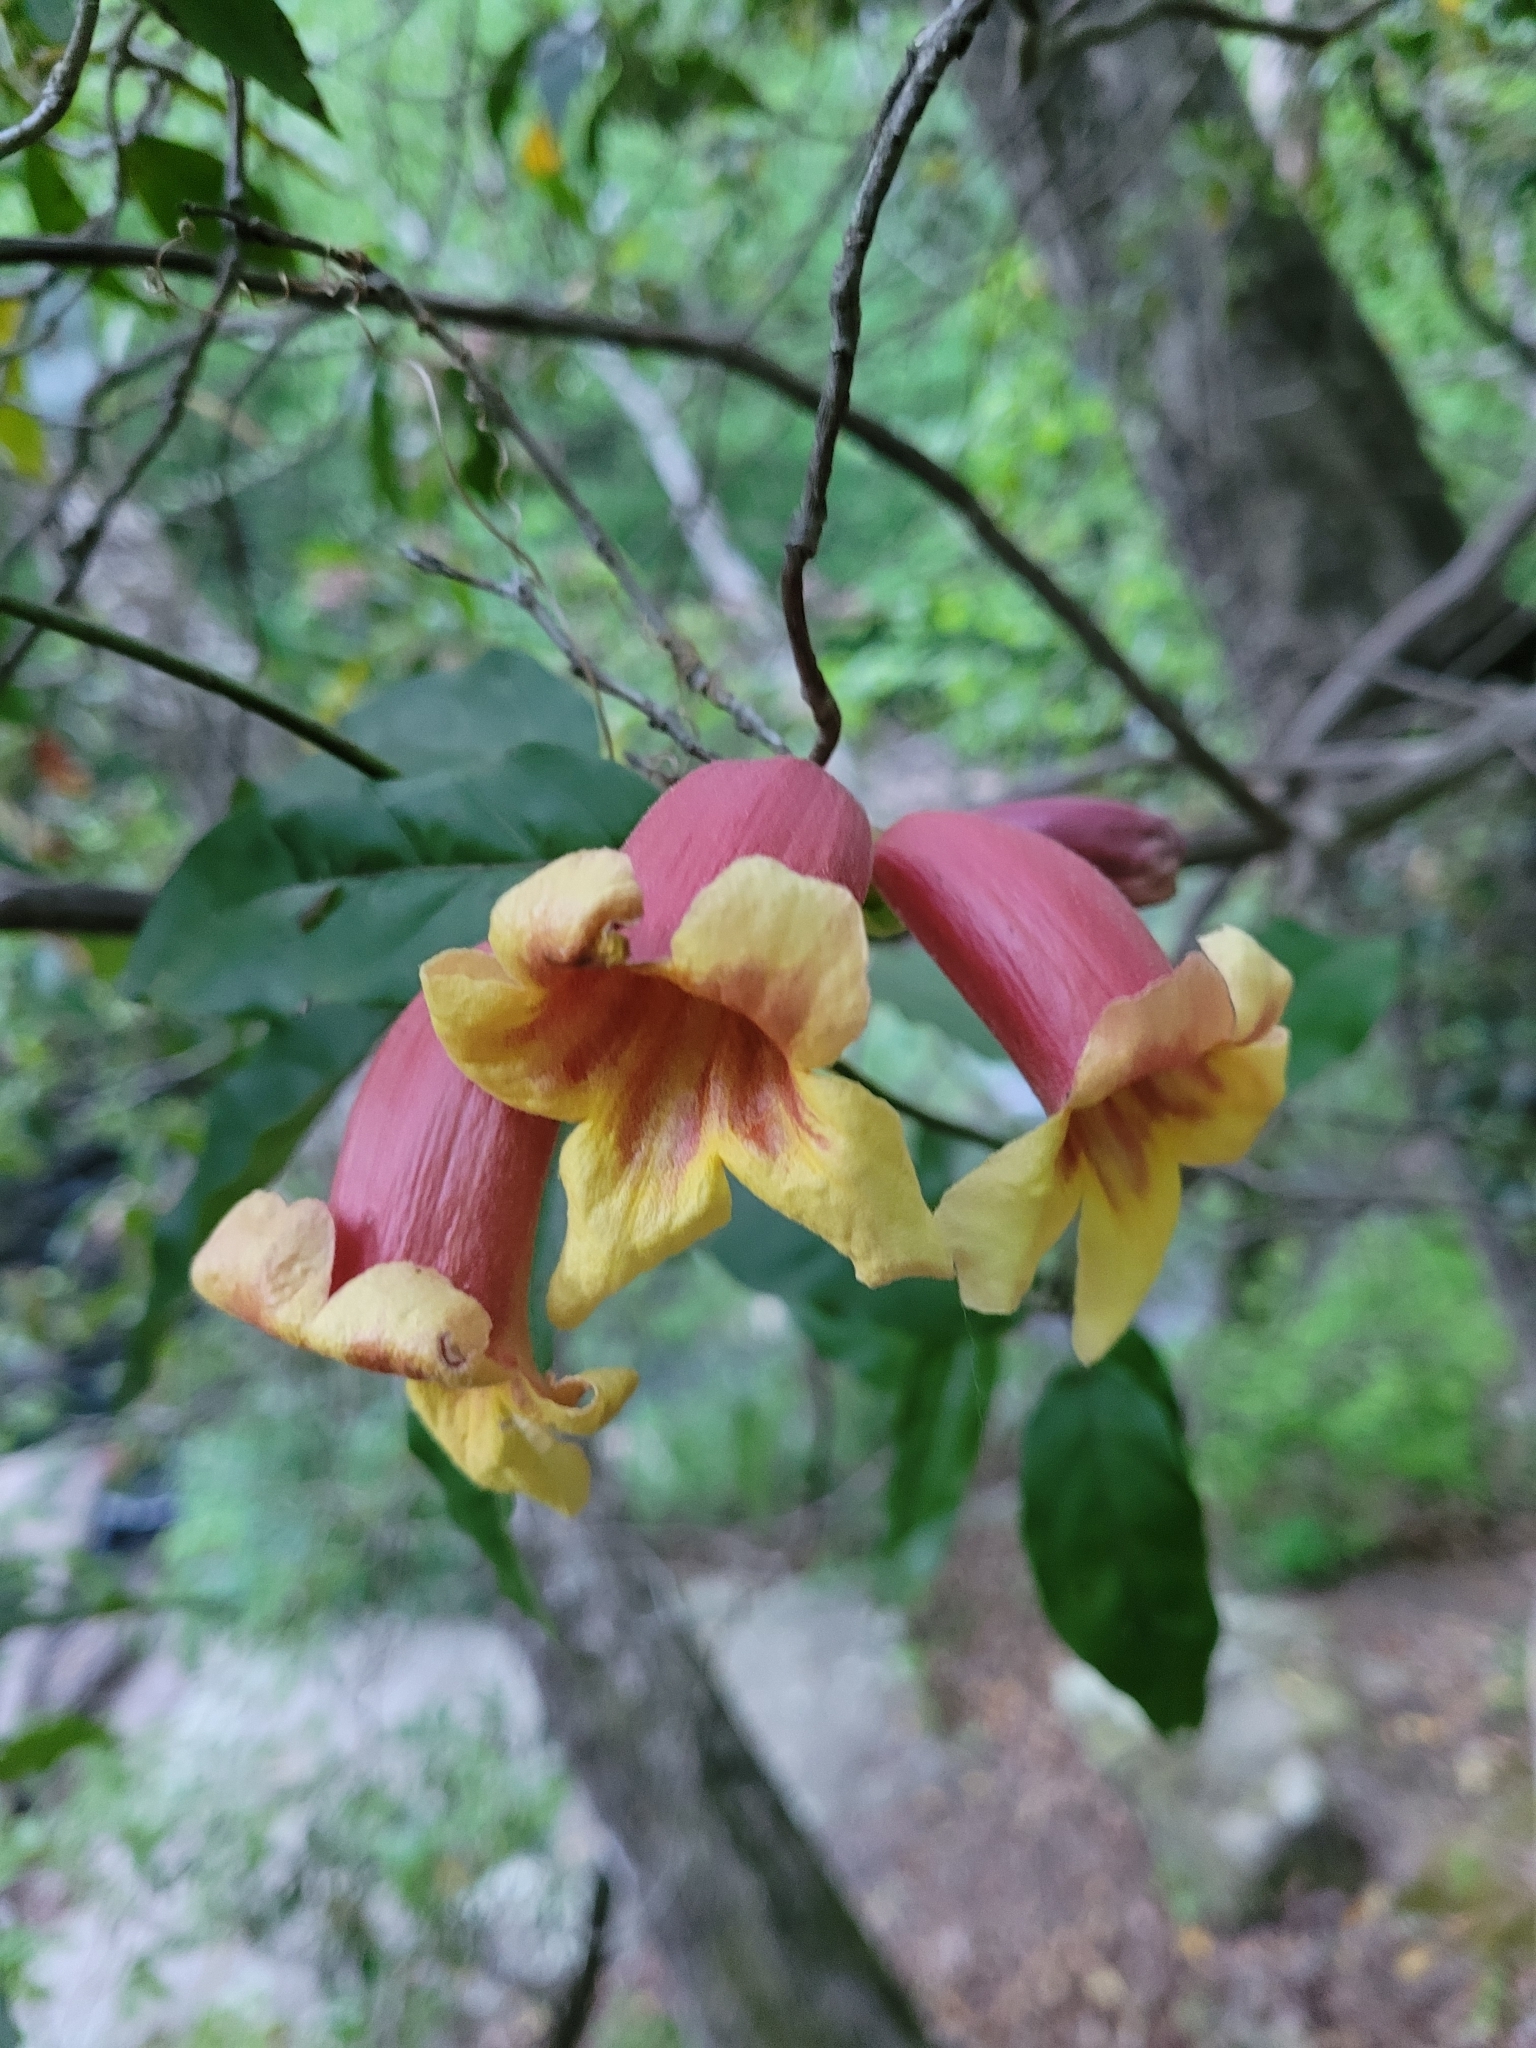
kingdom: Plantae
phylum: Tracheophyta
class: Magnoliopsida
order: Lamiales
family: Bignoniaceae
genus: Bignonia
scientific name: Bignonia capreolata
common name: Crossvine
